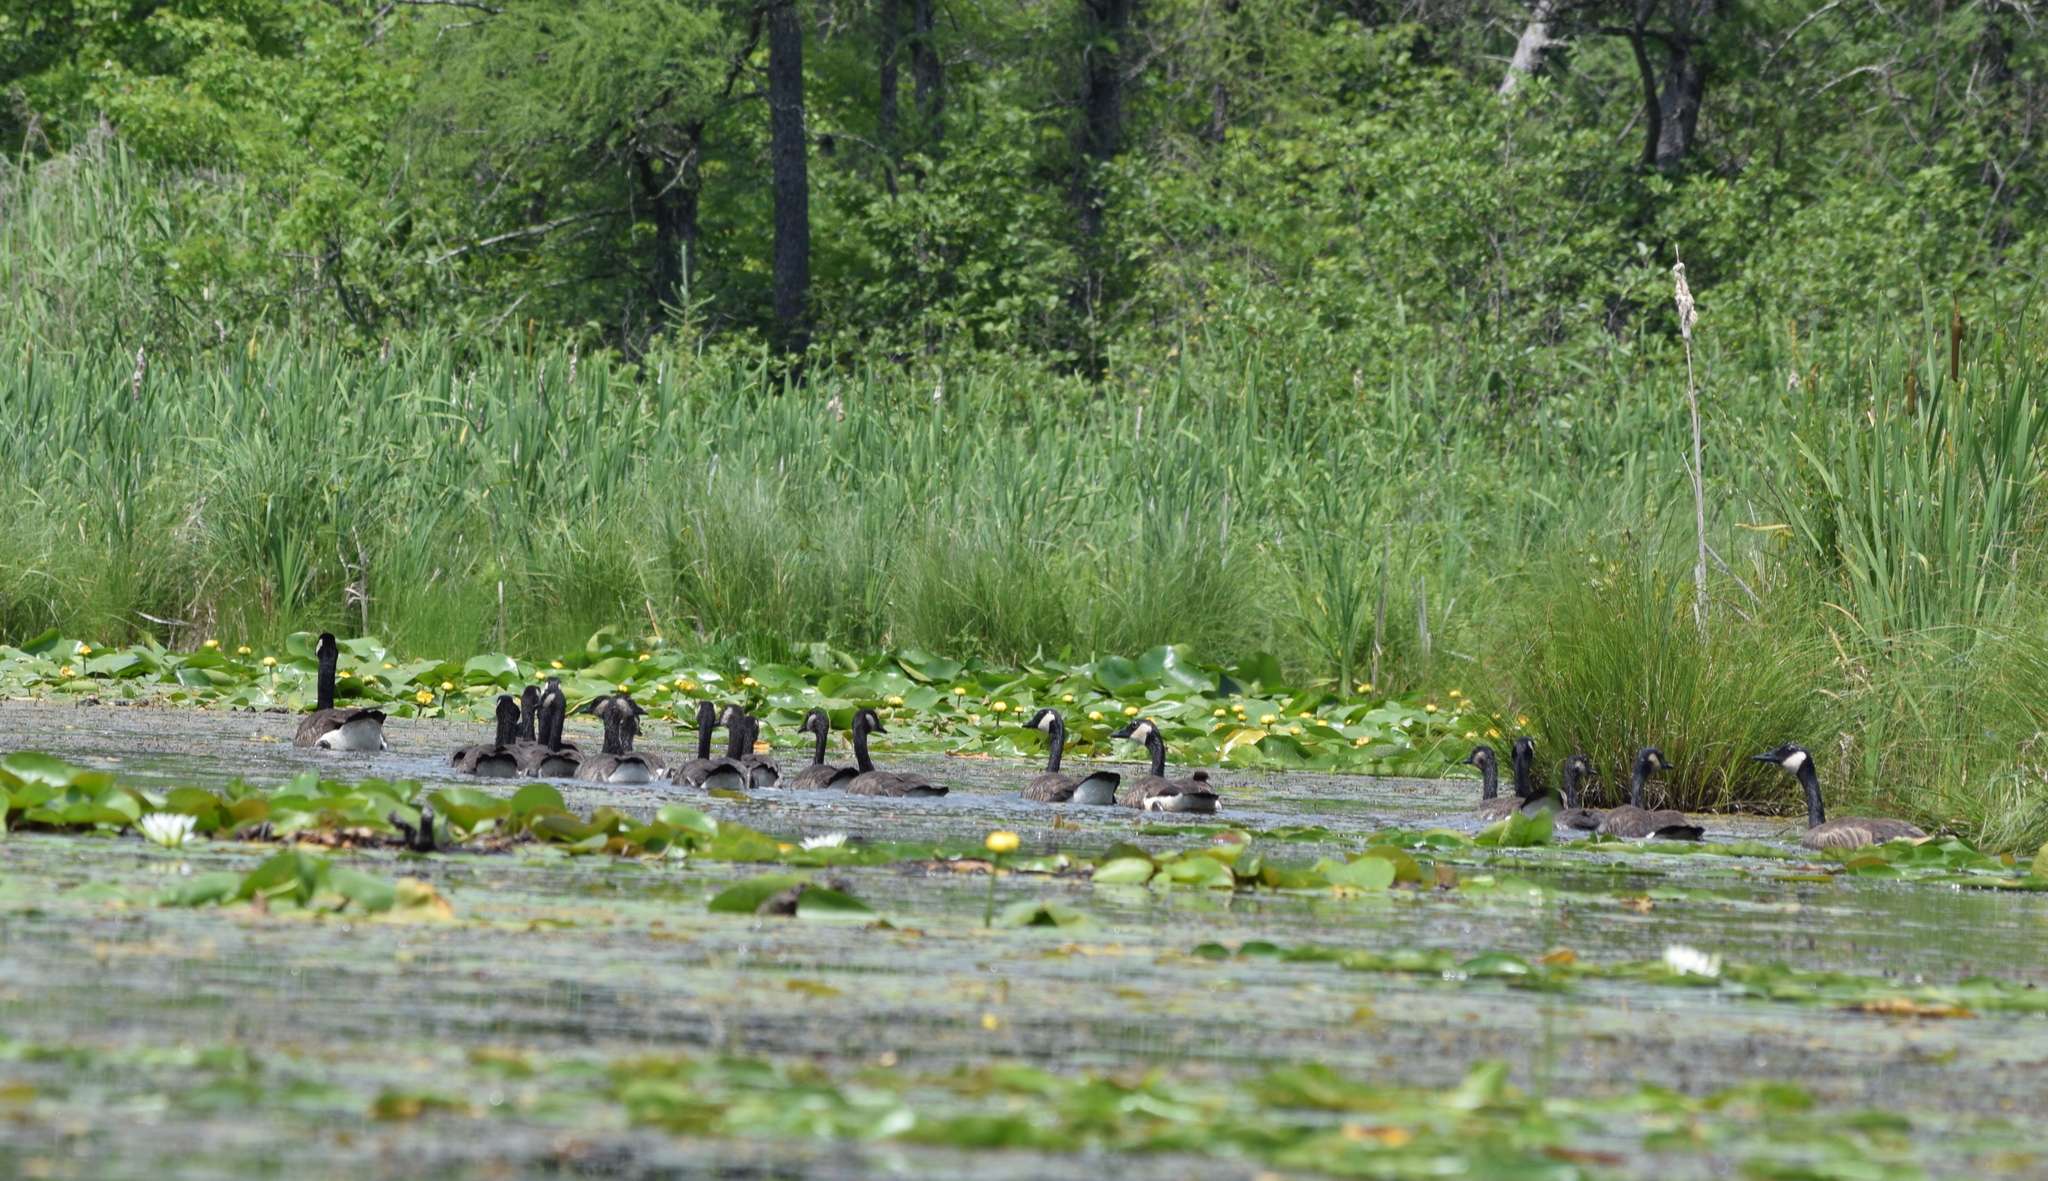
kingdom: Animalia
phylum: Chordata
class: Aves
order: Anseriformes
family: Anatidae
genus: Branta
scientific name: Branta canadensis
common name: Canada goose
